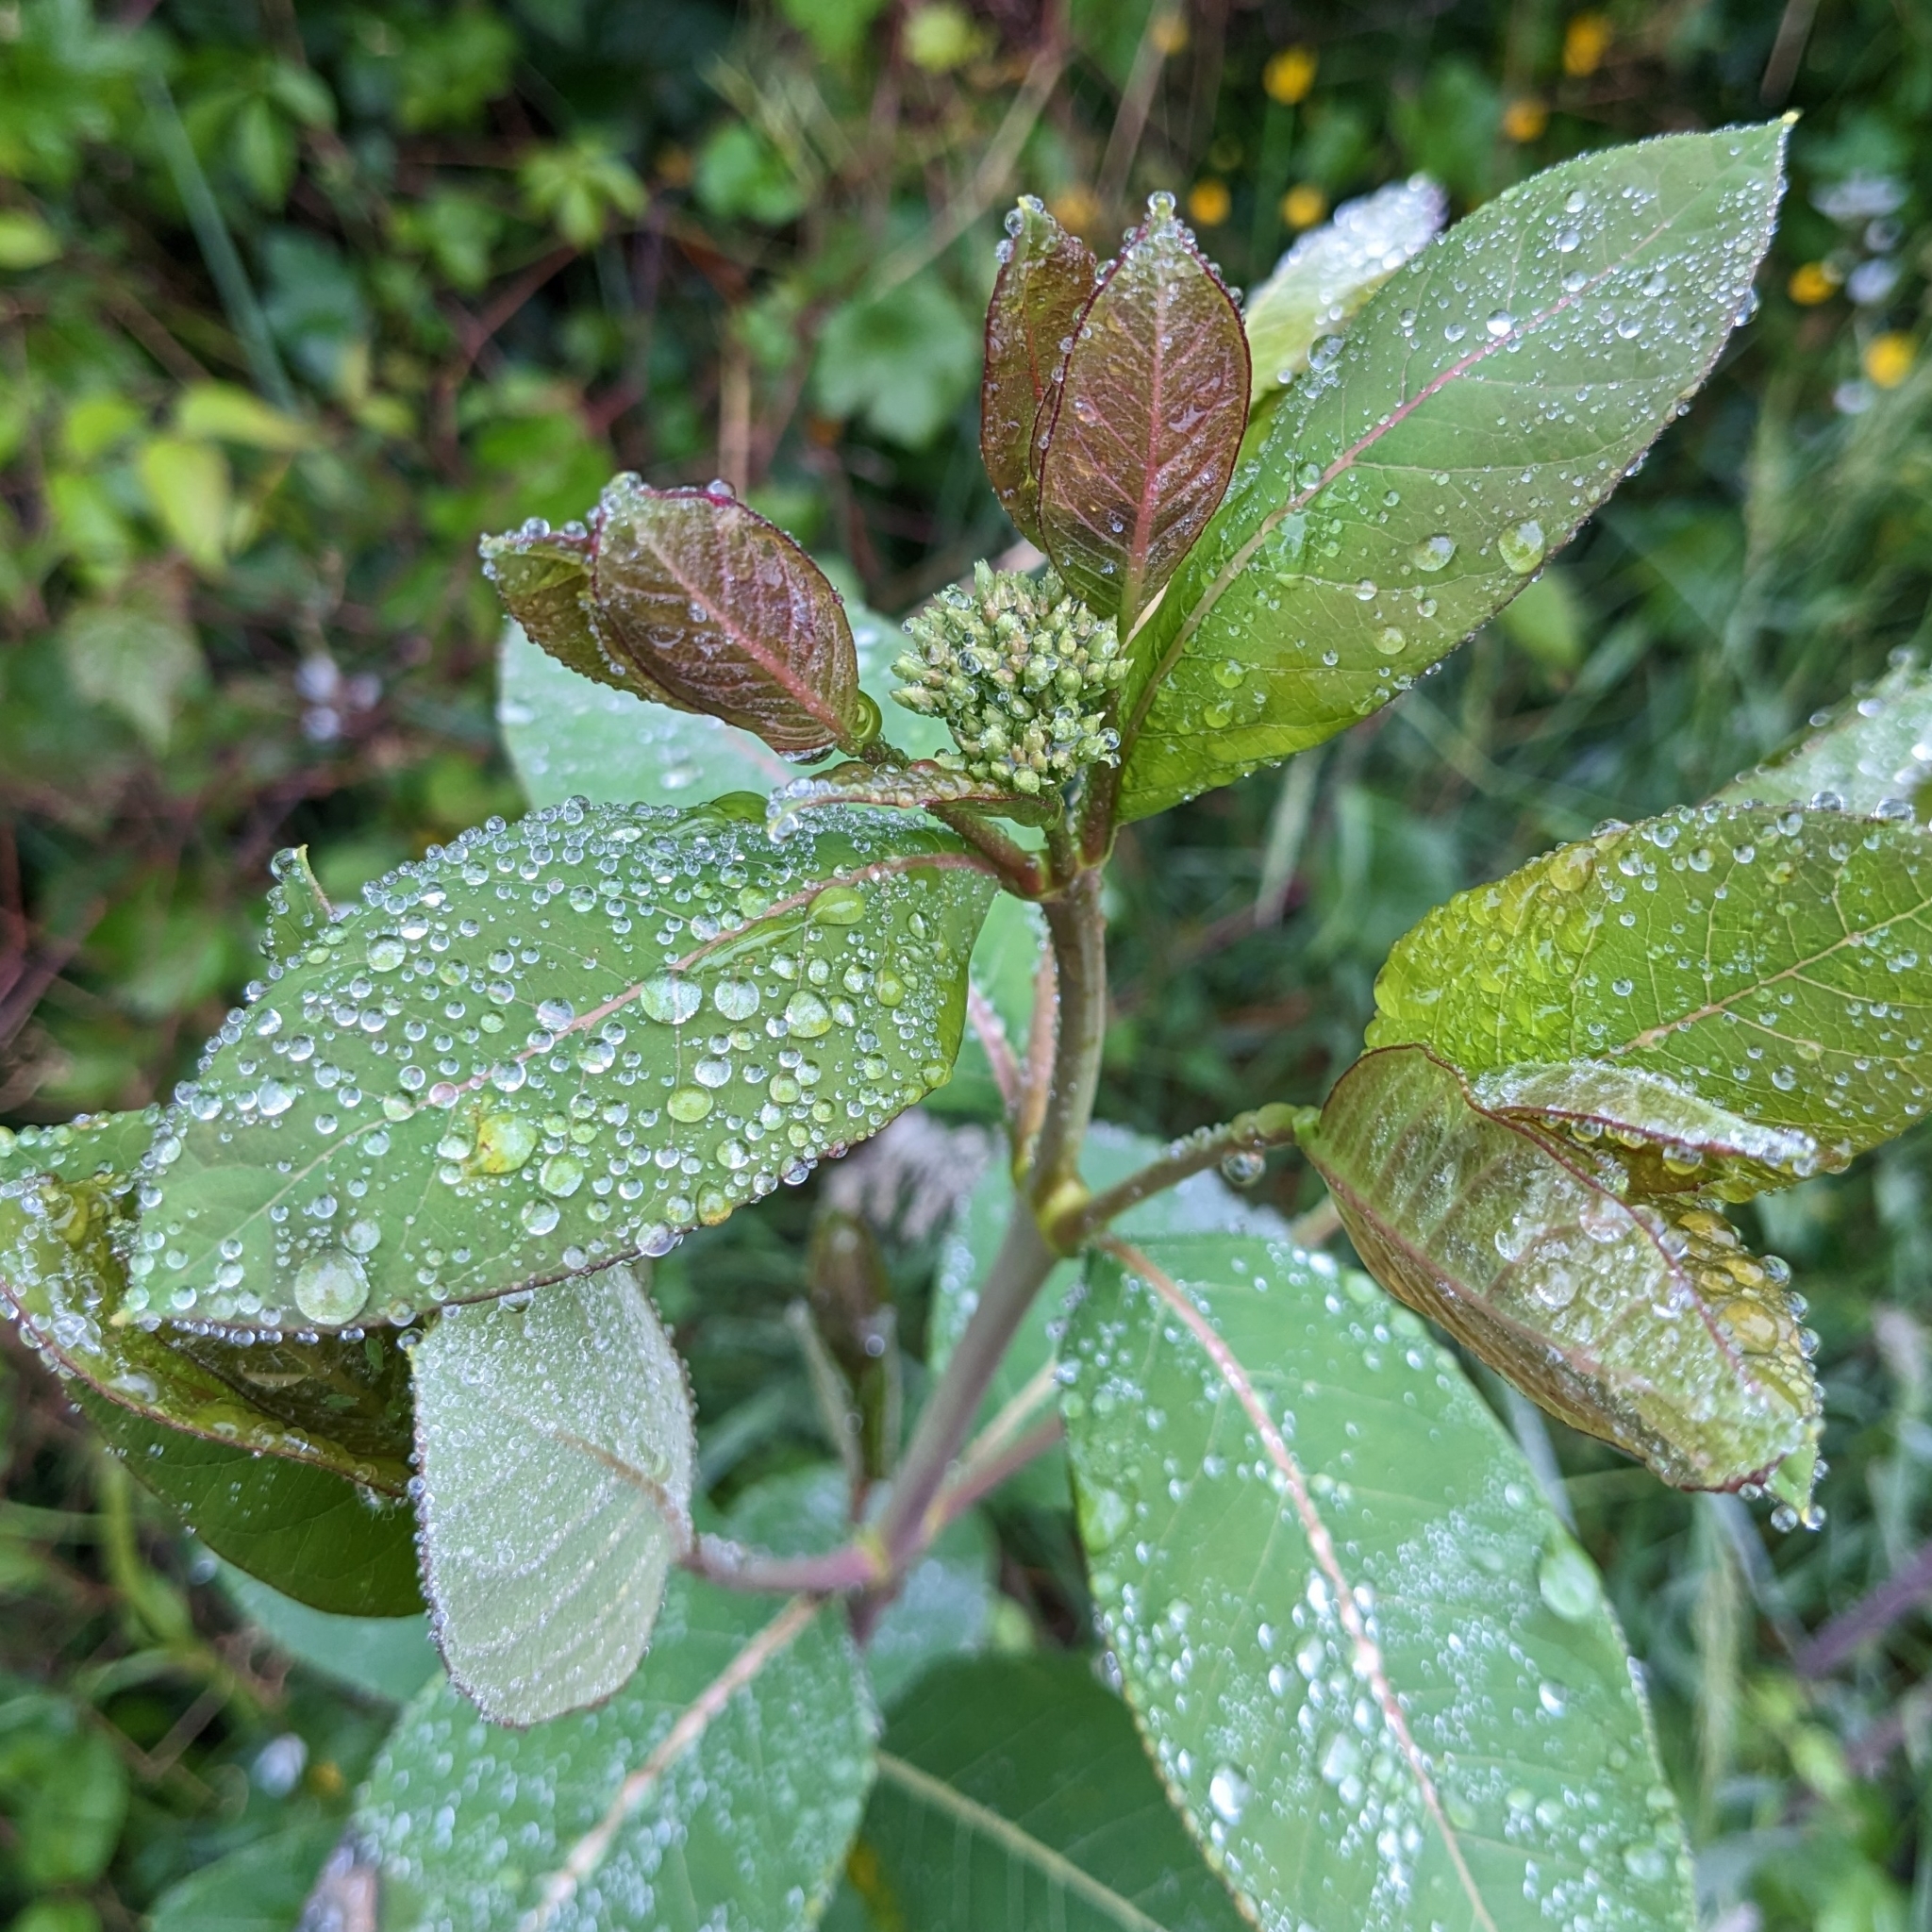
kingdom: Plantae
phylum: Tracheophyta
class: Magnoliopsida
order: Gentianales
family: Apocynaceae
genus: Apocynum
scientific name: Apocynum cannabinum
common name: Hemp dogbane
